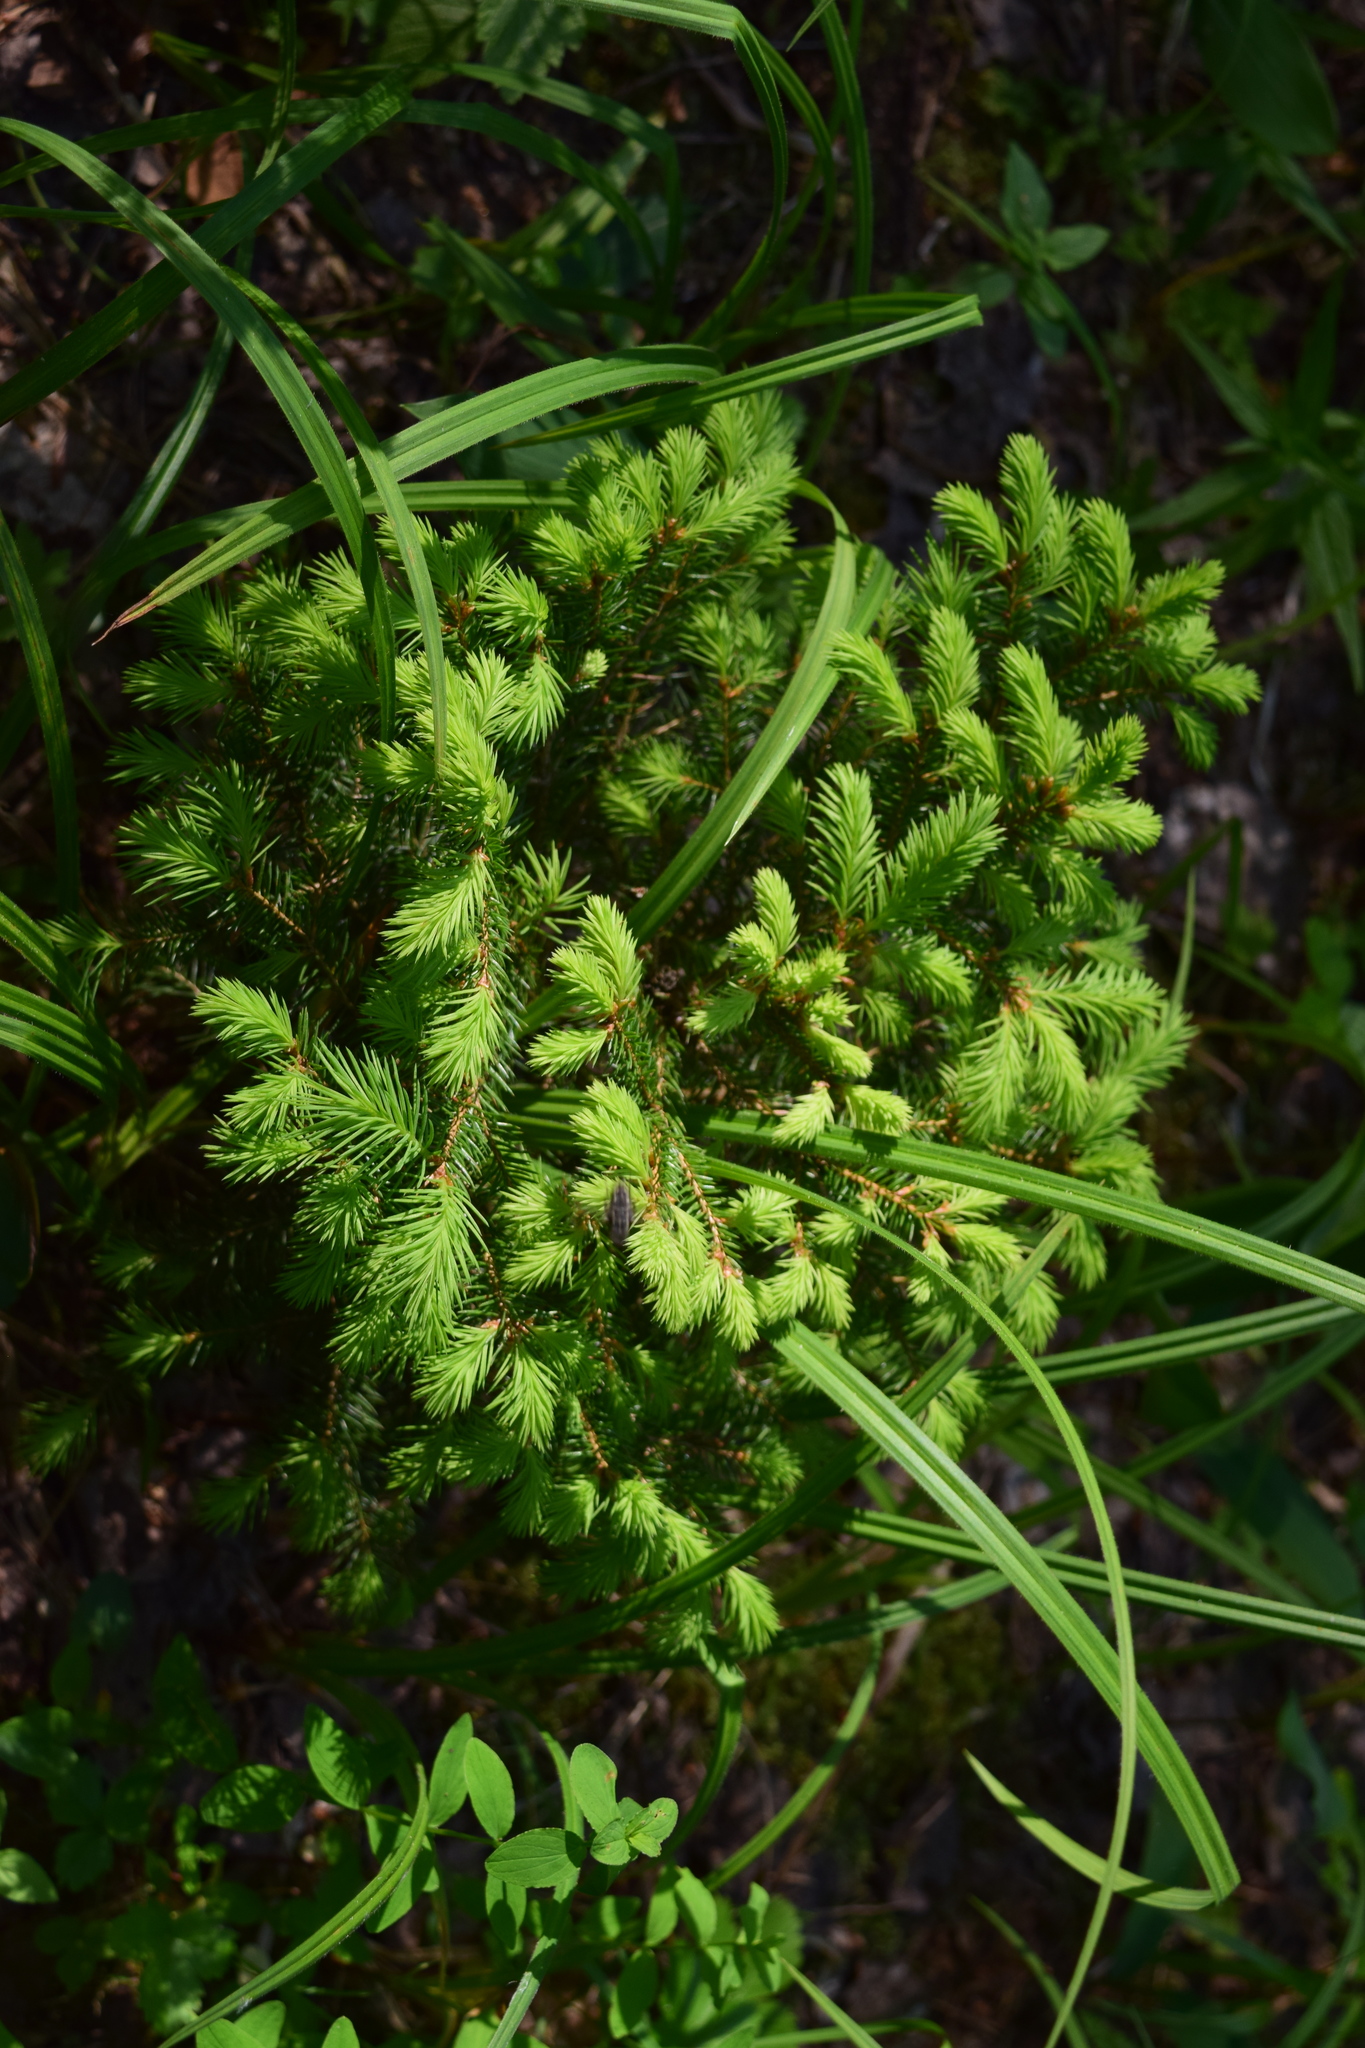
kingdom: Plantae
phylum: Tracheophyta
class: Pinopsida
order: Pinales
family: Pinaceae
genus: Picea
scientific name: Picea abies
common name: Norway spruce
